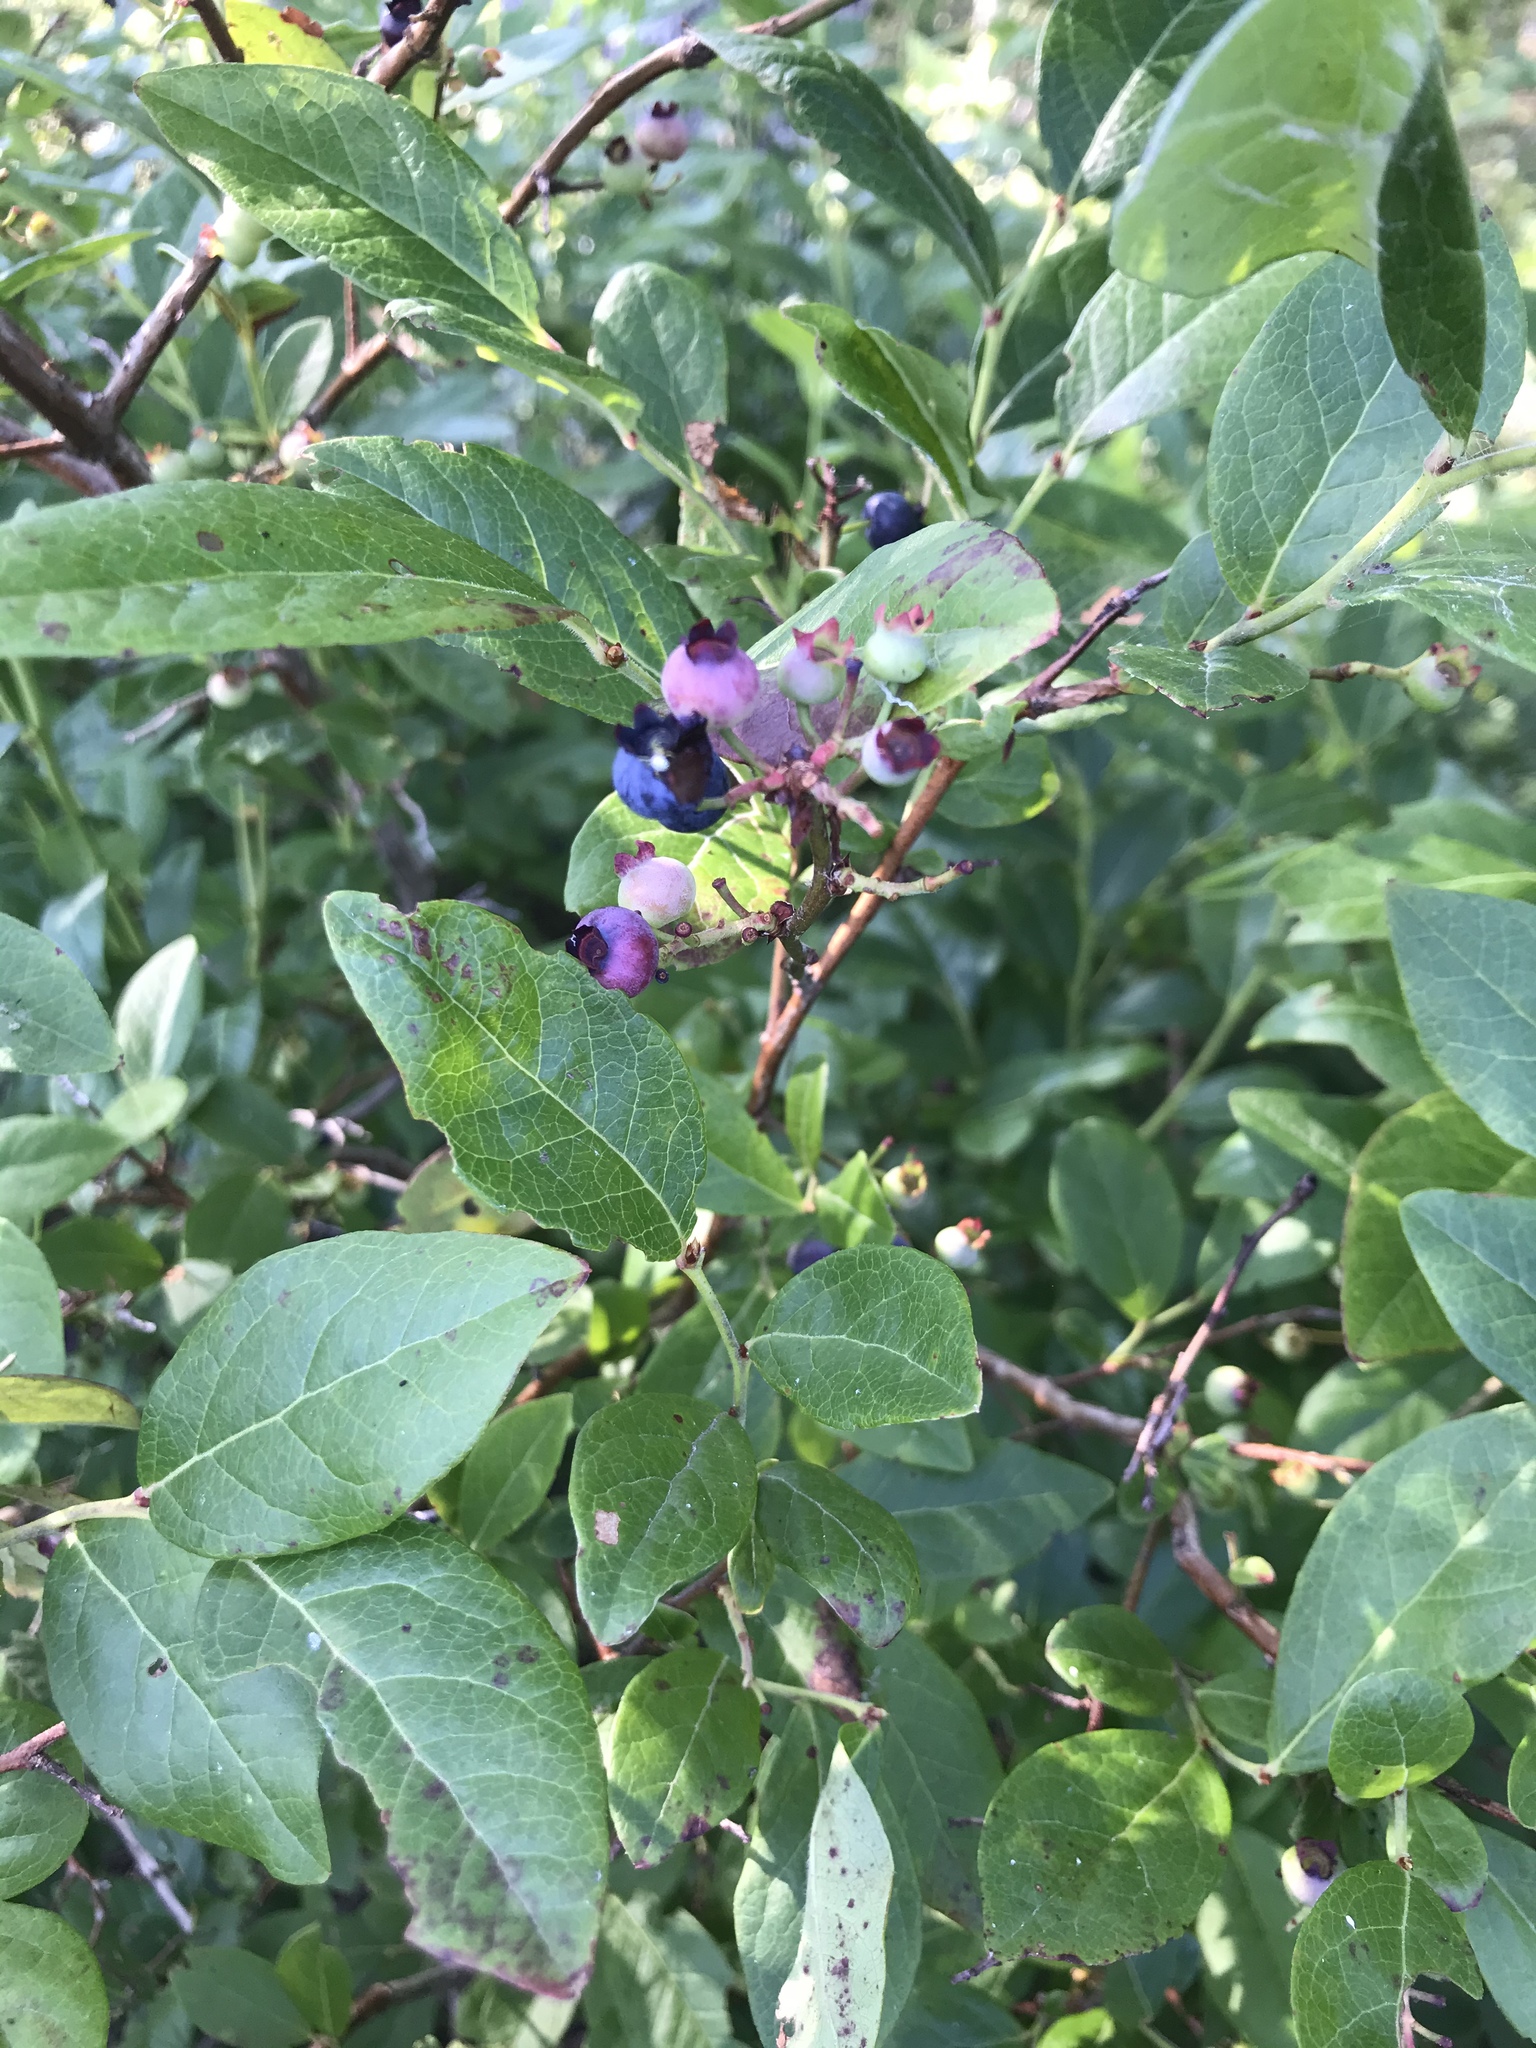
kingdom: Plantae
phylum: Tracheophyta
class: Magnoliopsida
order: Ericales
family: Ericaceae
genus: Vaccinium
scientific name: Vaccinium corymbosum
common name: Blueberry
